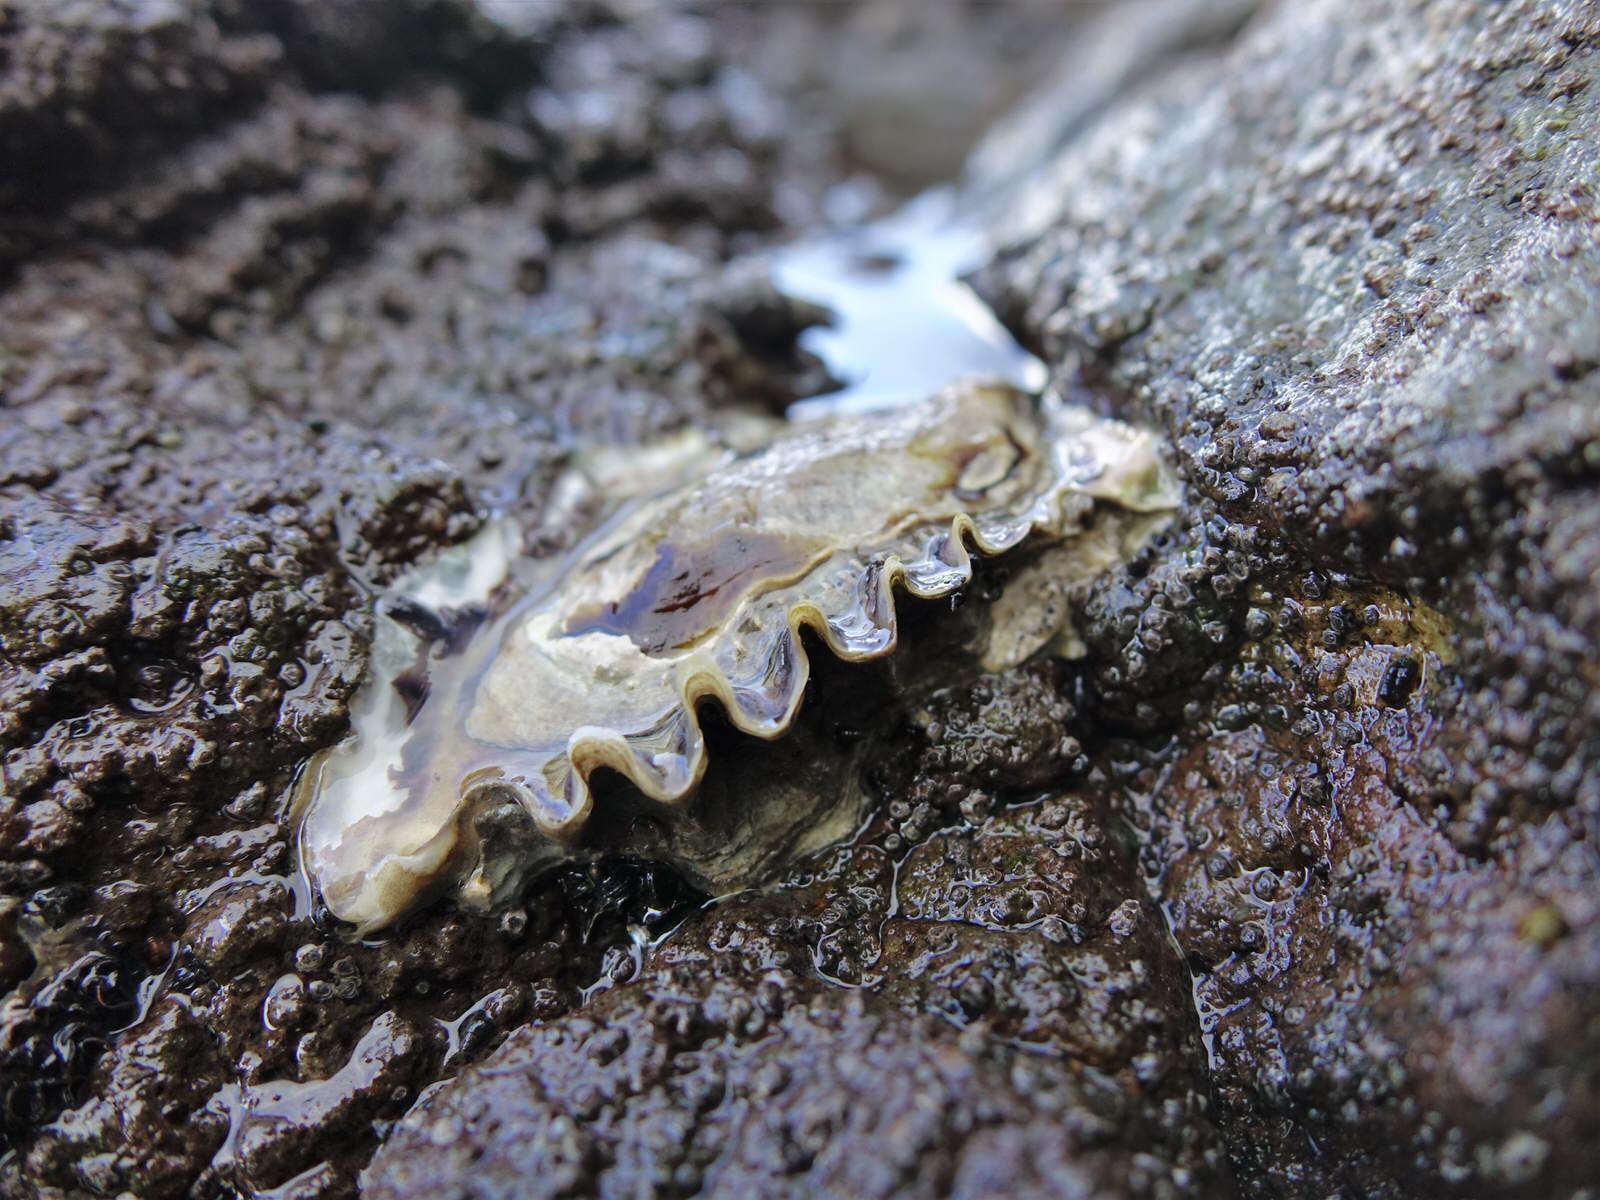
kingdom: Animalia
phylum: Mollusca
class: Bivalvia
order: Ostreida
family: Ostreidae
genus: Saccostrea
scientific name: Saccostrea glomerata
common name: Sydney cupped oyster
